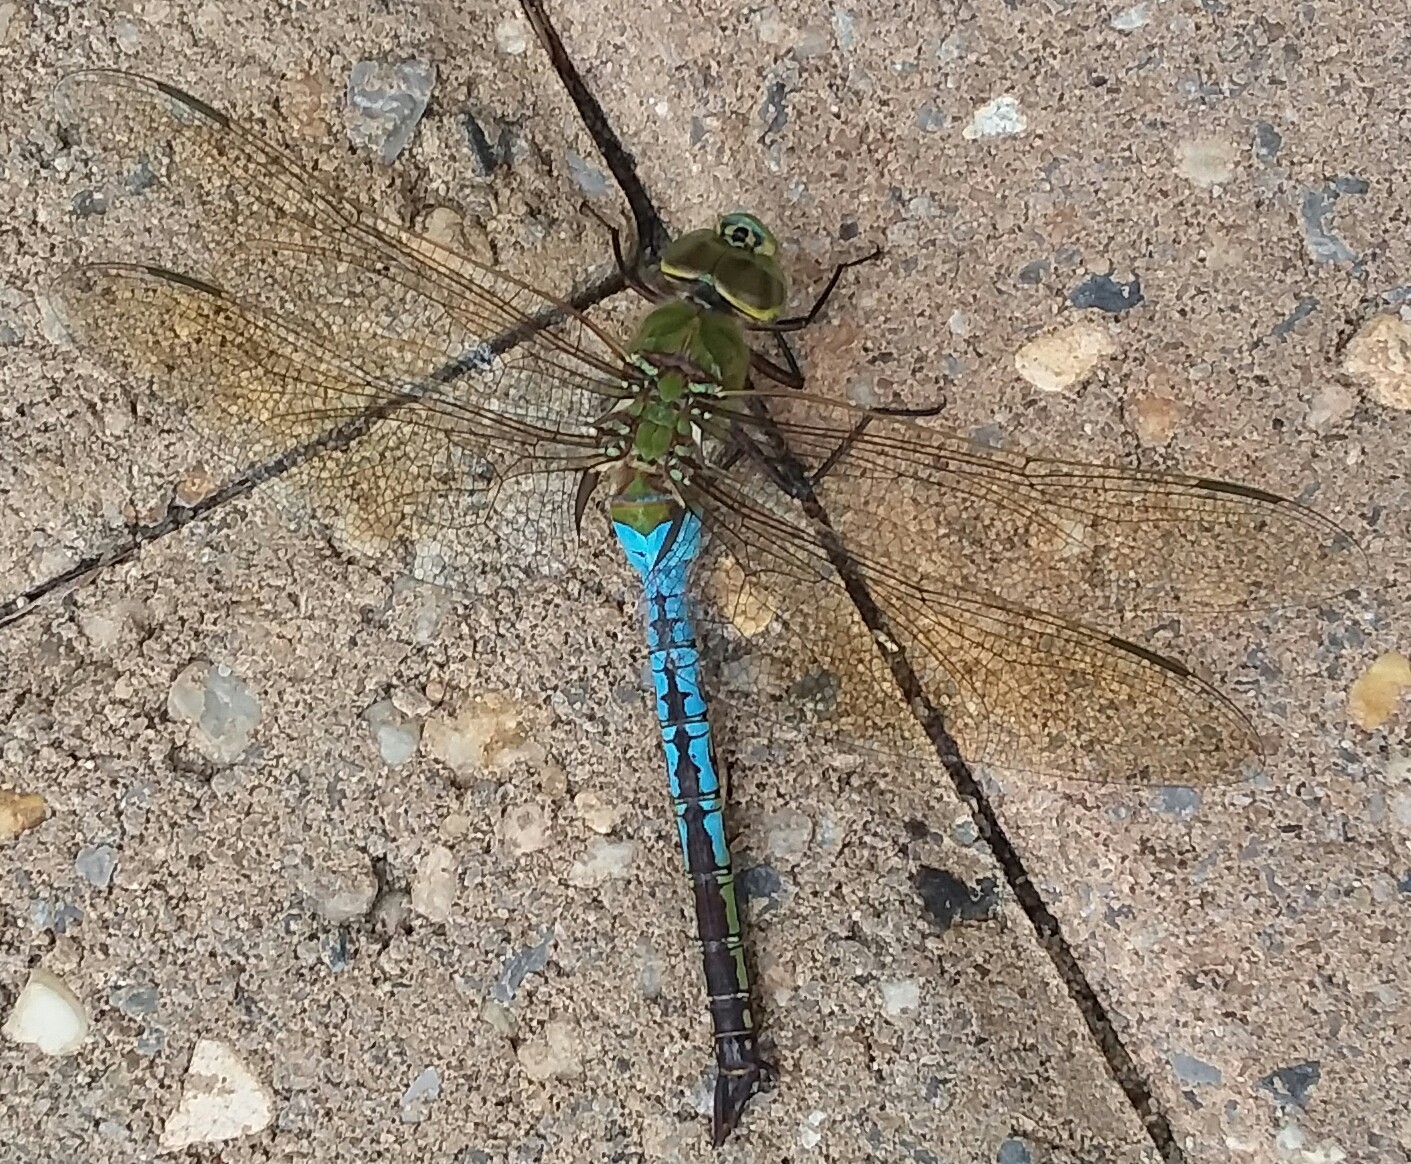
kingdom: Animalia
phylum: Arthropoda
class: Insecta
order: Odonata
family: Aeshnidae
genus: Anax
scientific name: Anax junius
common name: Common green darner
